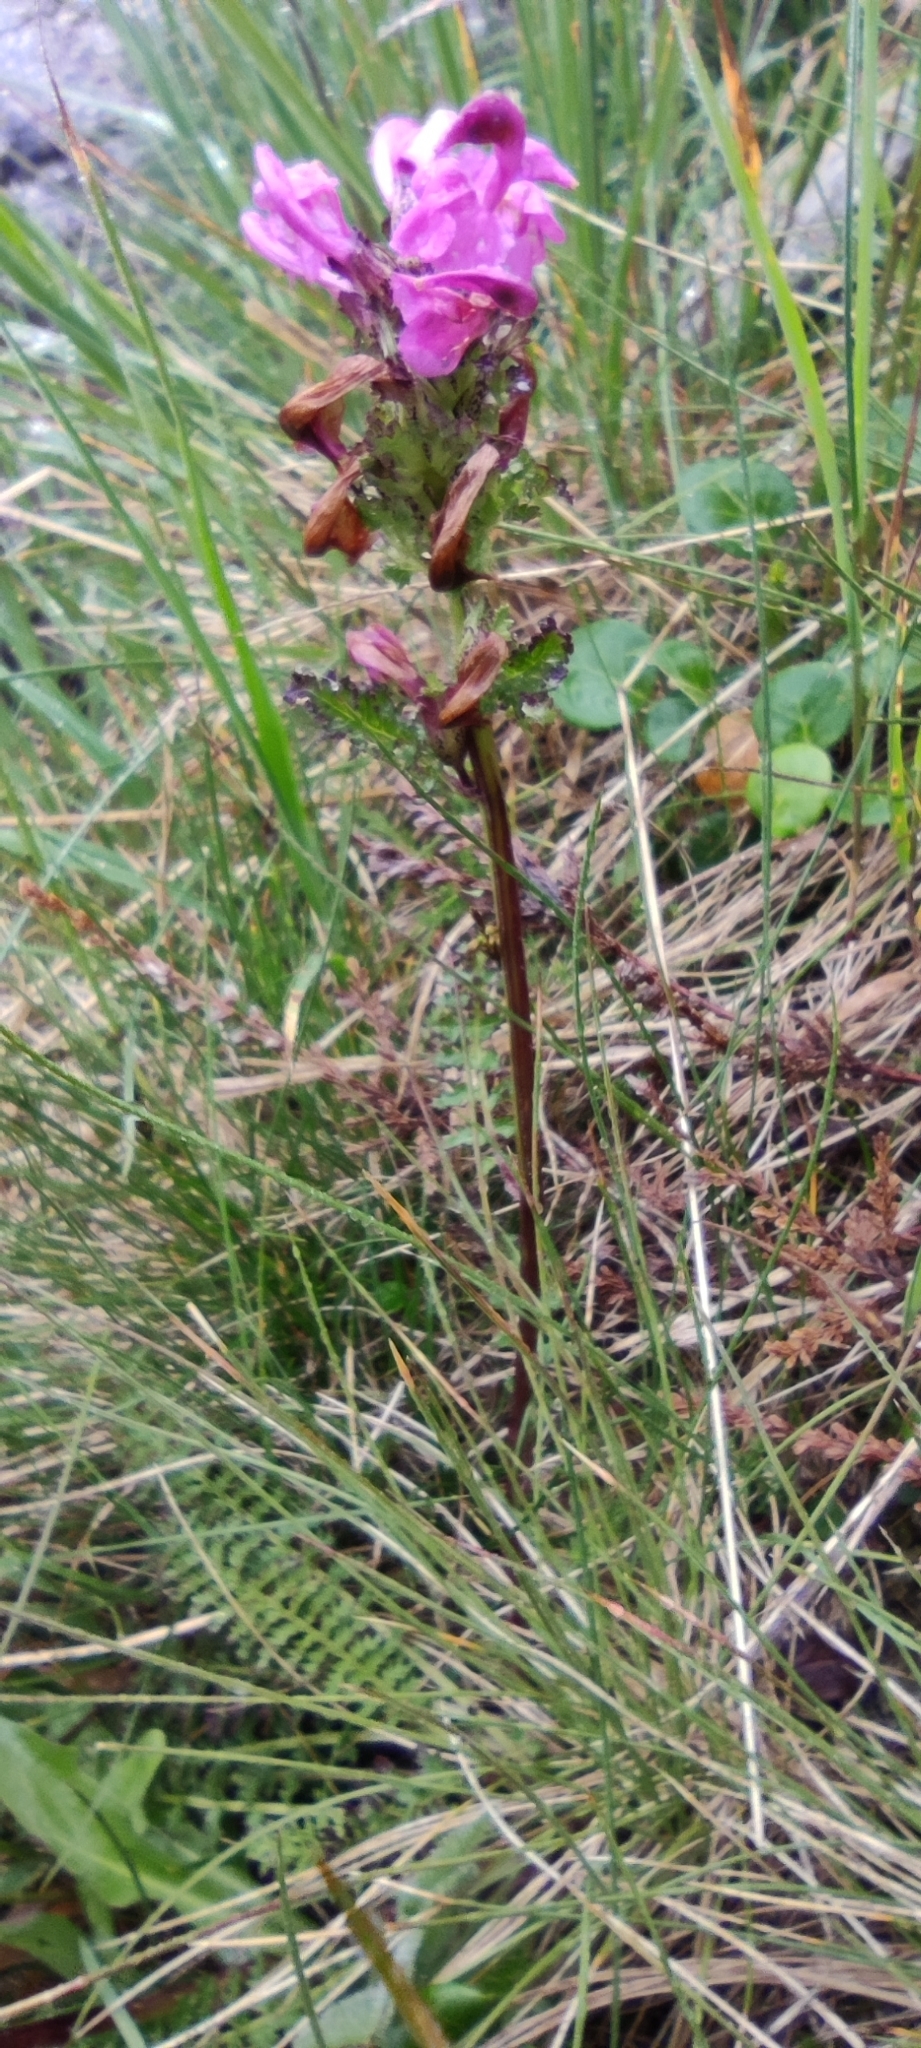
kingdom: Plantae
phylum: Tracheophyta
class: Magnoliopsida
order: Lamiales
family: Orobanchaceae
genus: Pedicularis
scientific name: Pedicularis pyrenaica
